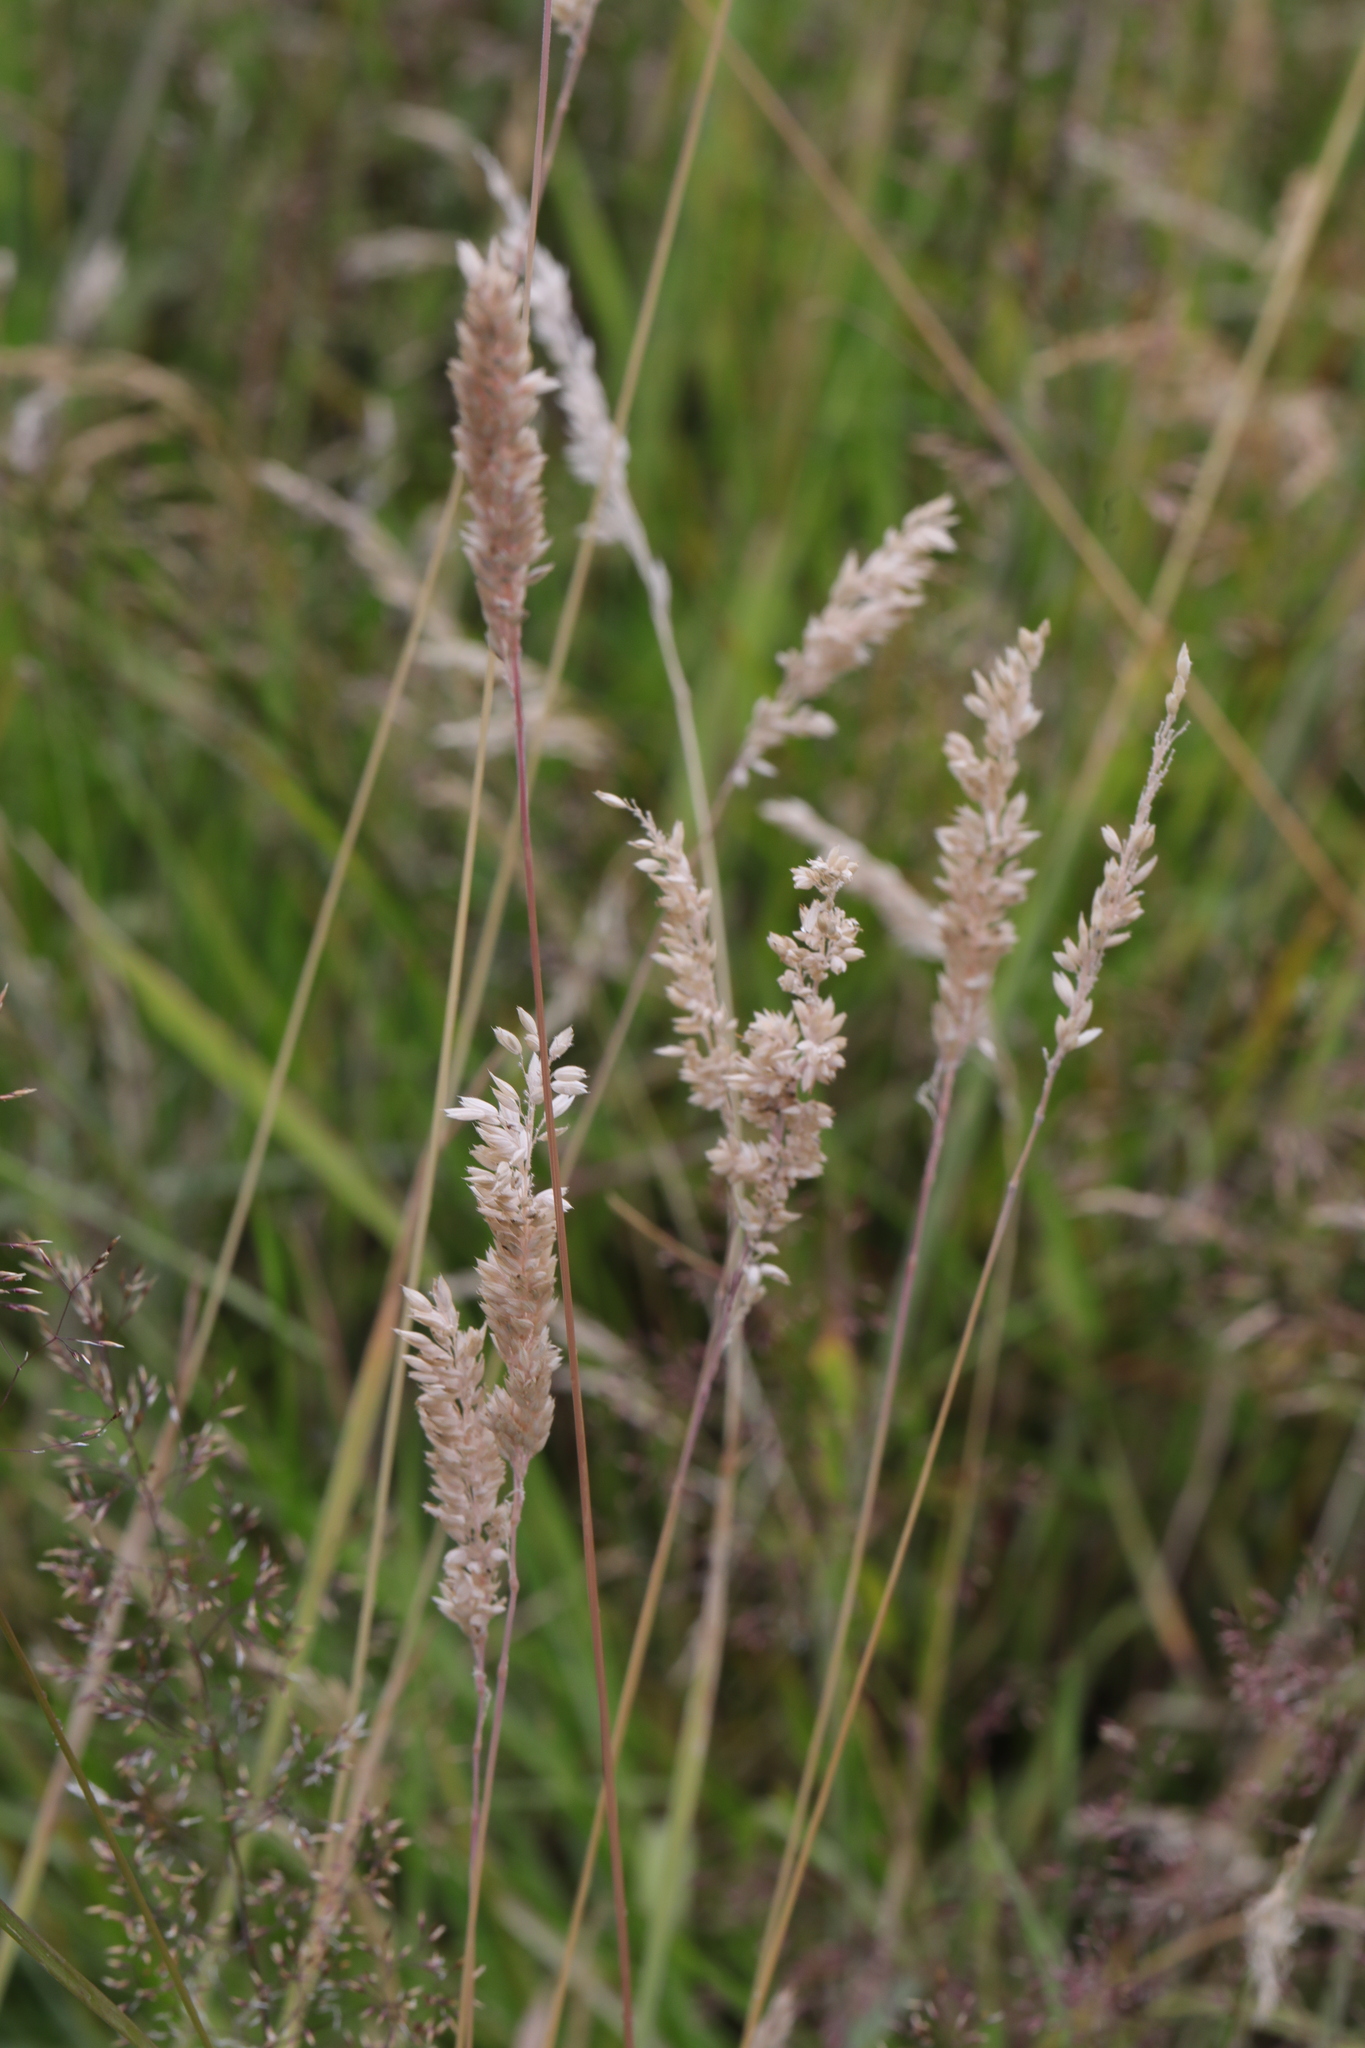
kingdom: Plantae
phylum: Tracheophyta
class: Liliopsida
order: Poales
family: Poaceae
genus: Holcus
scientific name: Holcus lanatus
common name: Yorkshire-fog
